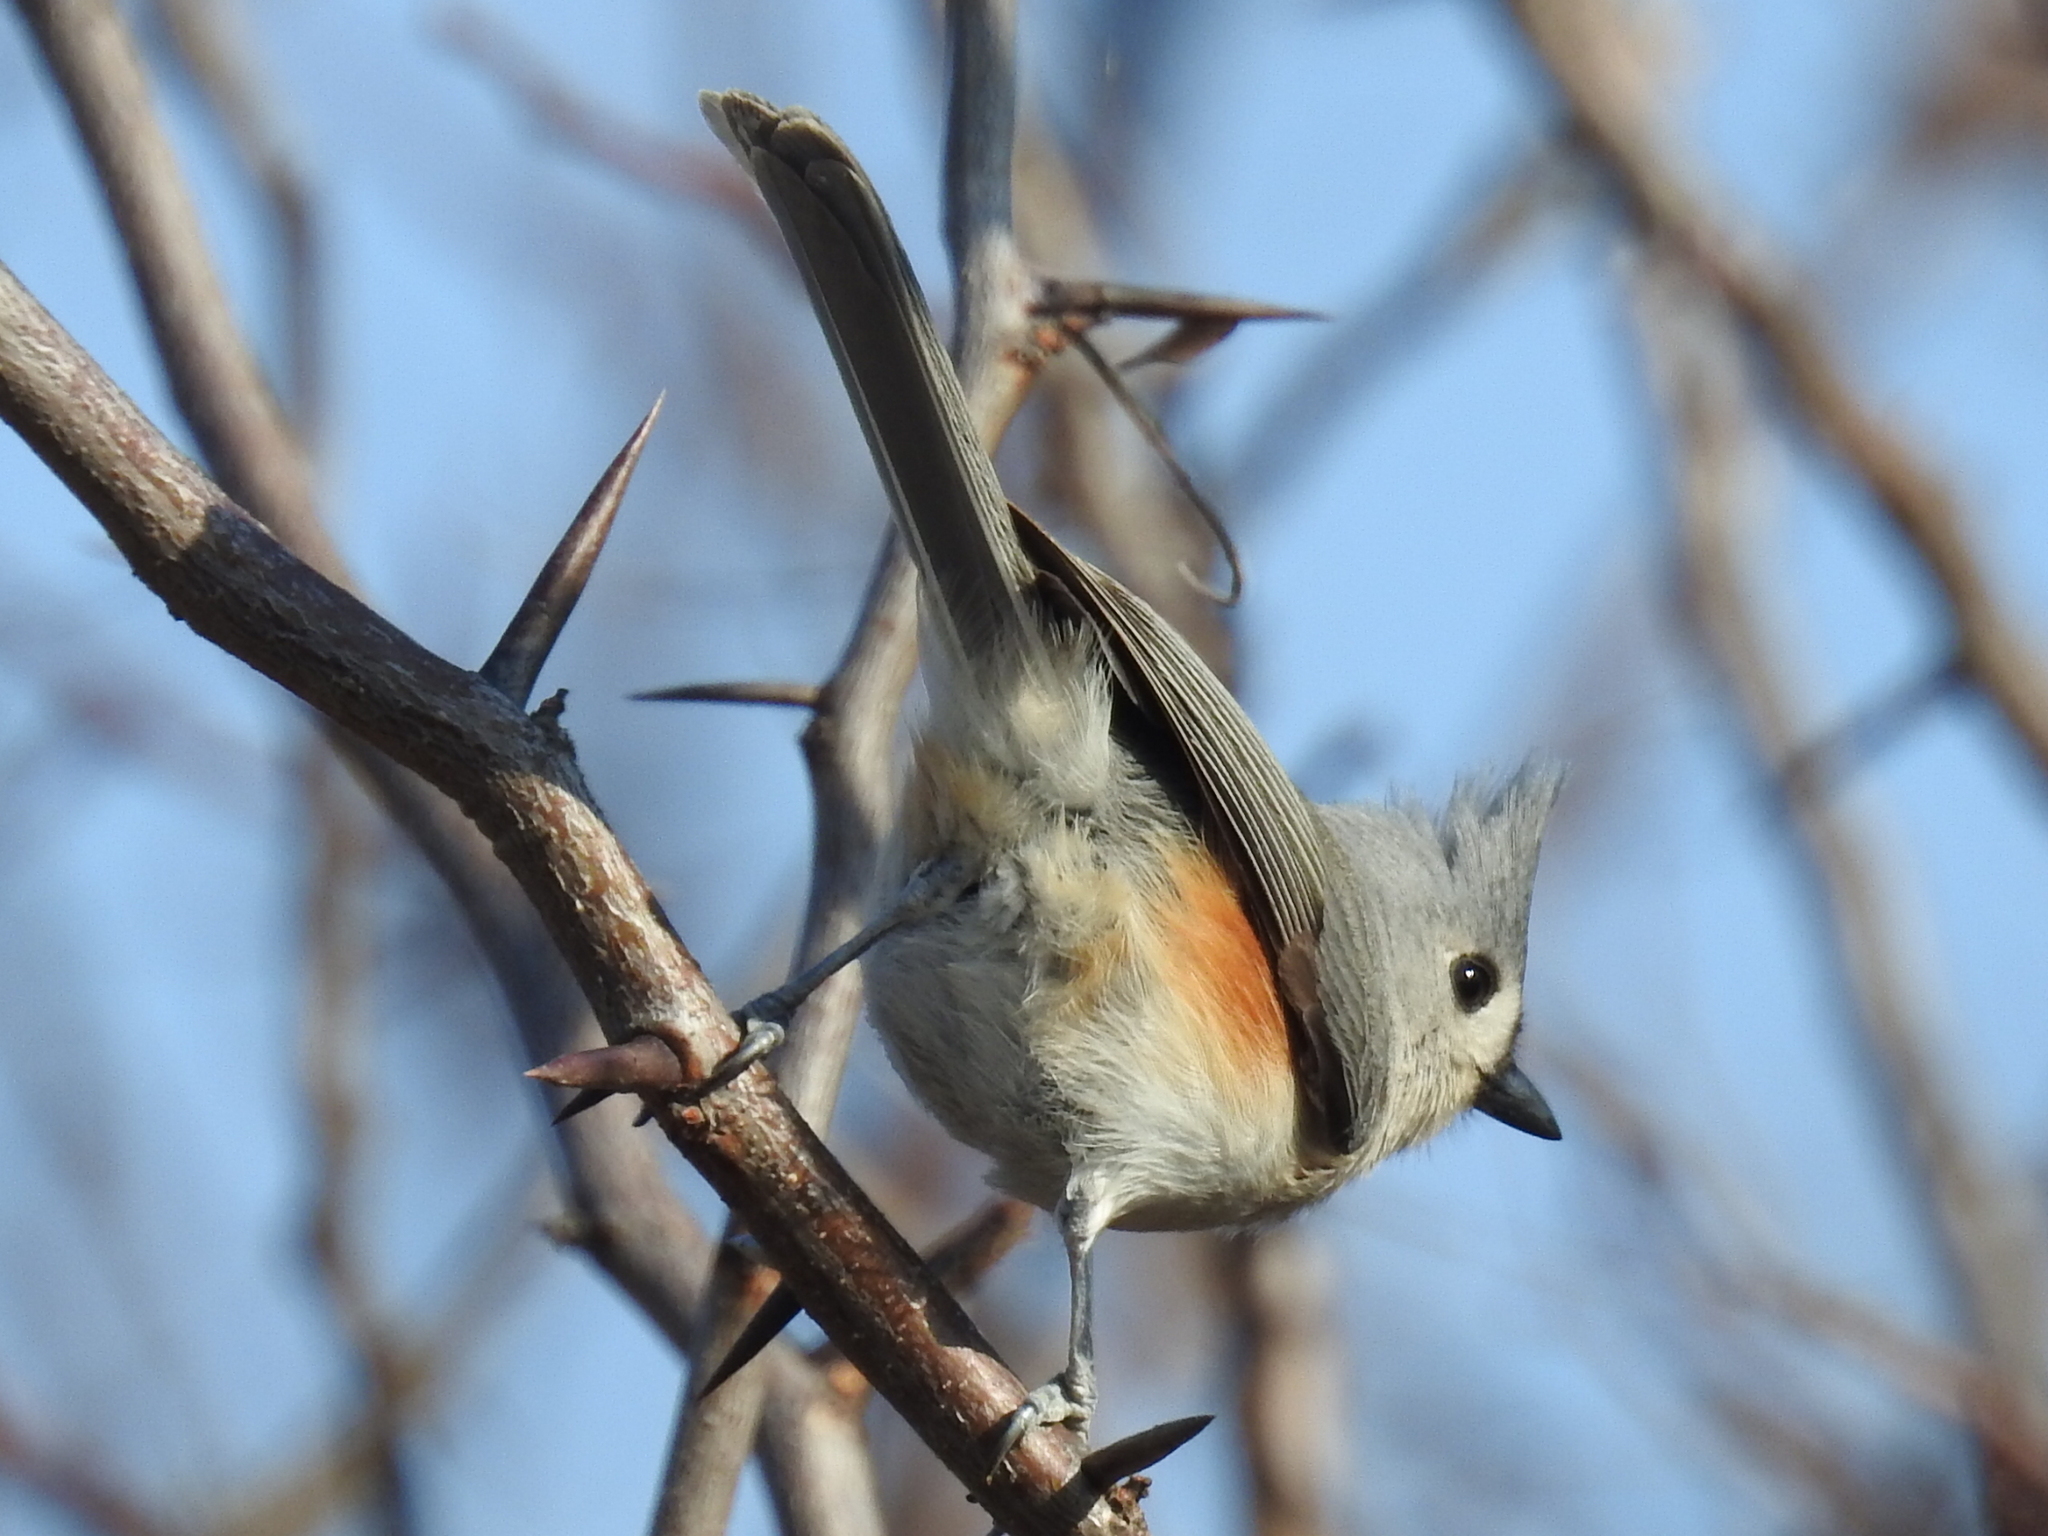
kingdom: Animalia
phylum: Chordata
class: Aves
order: Passeriformes
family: Paridae
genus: Baeolophus
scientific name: Baeolophus bicolor
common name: Tufted titmouse
